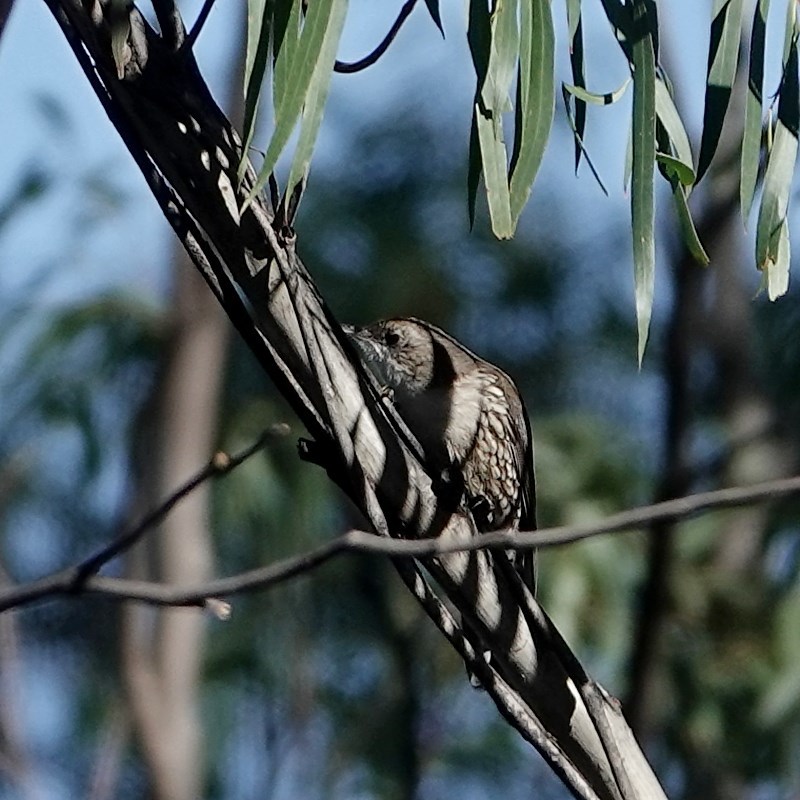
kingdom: Animalia
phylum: Chordata
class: Aves
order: Passeriformes
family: Climacteridae
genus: Cormobates
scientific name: Cormobates leucophaea
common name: White-throated treecreeper
